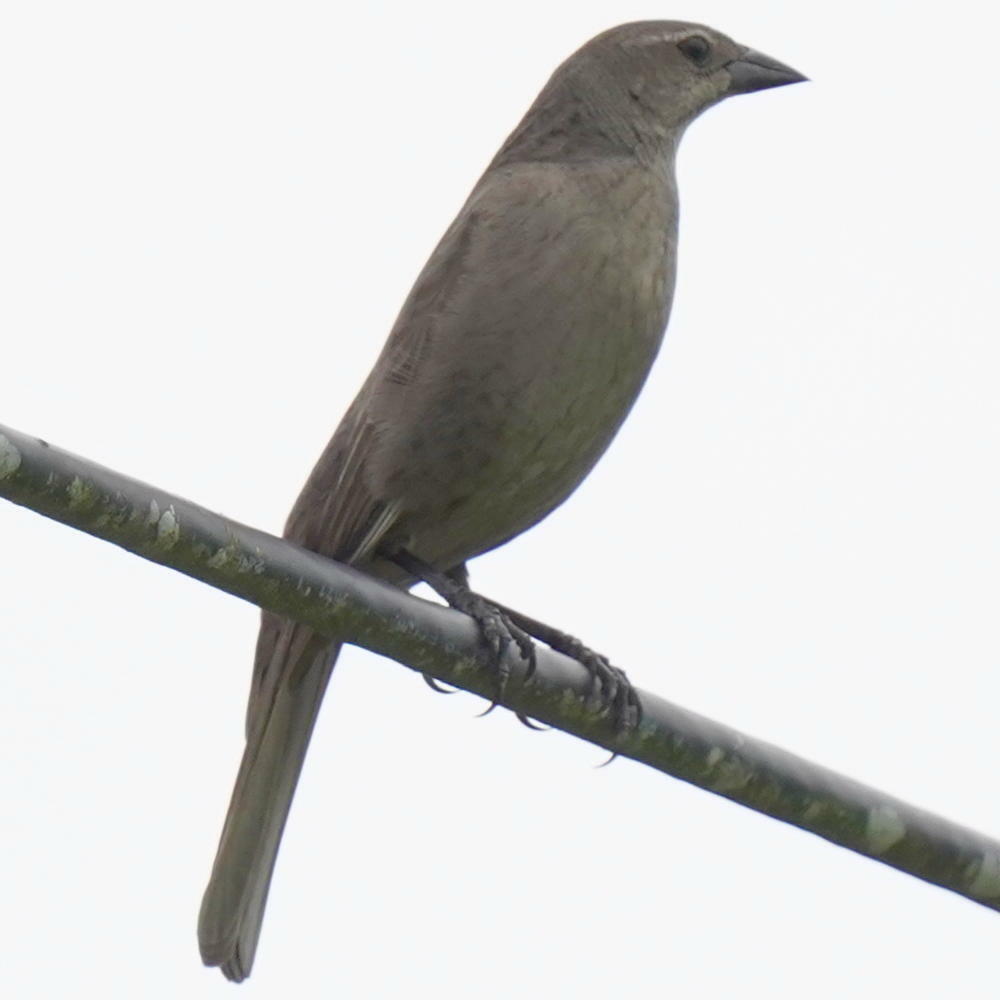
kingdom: Animalia
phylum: Chordata
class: Aves
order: Passeriformes
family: Icteridae
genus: Molothrus
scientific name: Molothrus bonariensis
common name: Shiny cowbird
